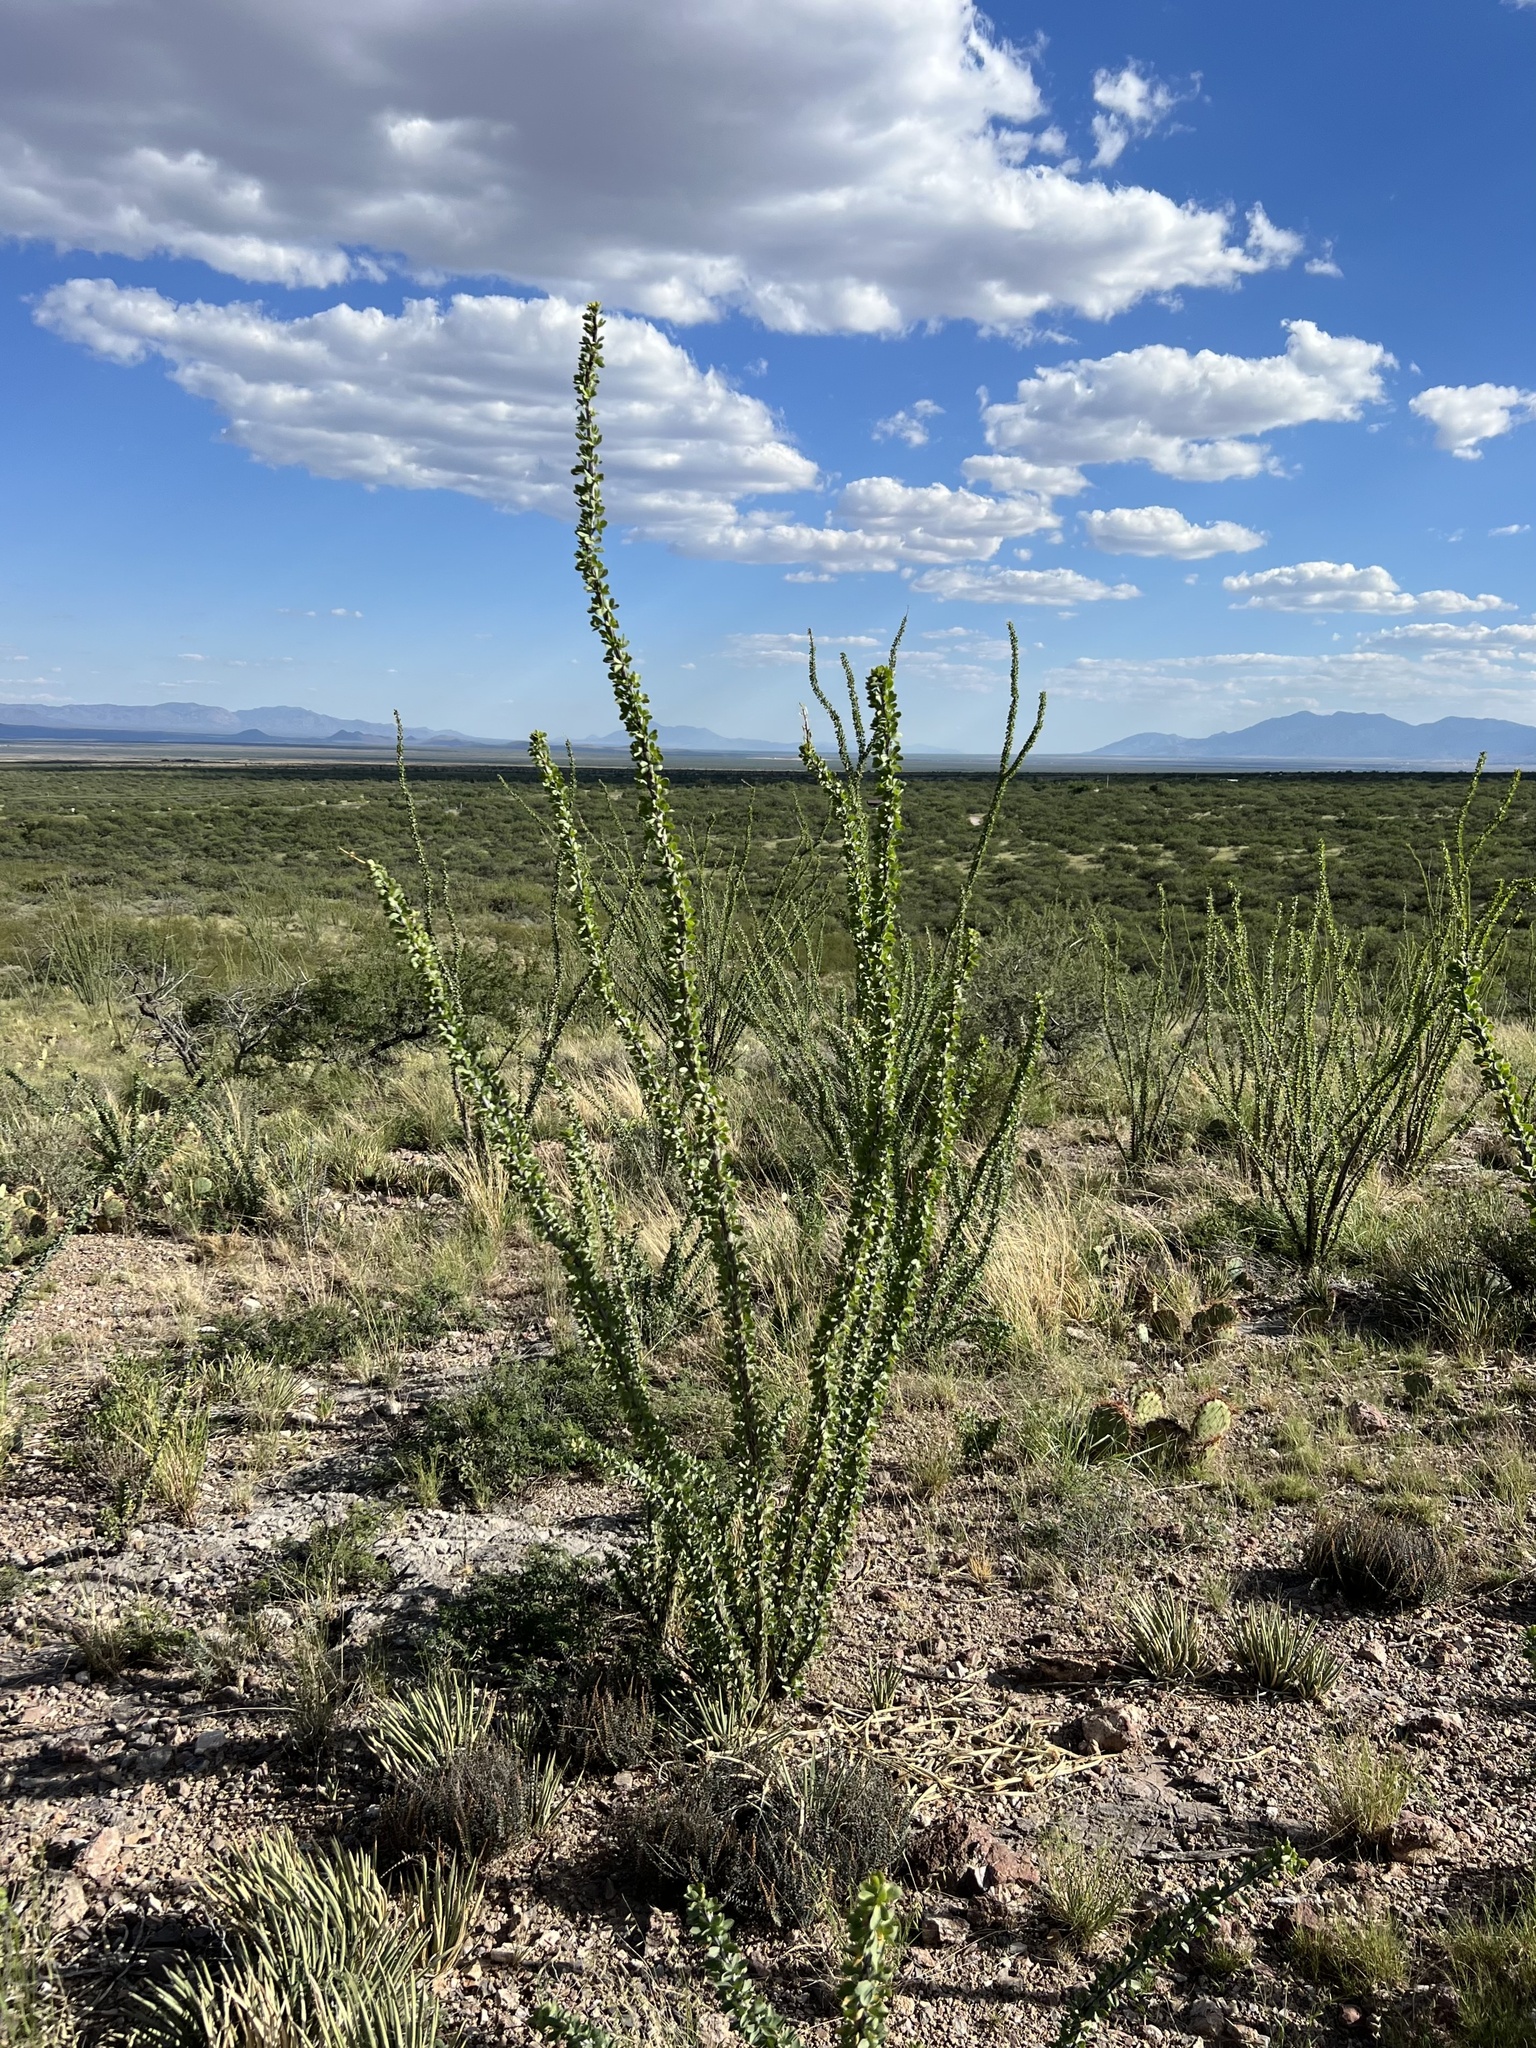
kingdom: Plantae
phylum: Tracheophyta
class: Magnoliopsida
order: Ericales
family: Fouquieriaceae
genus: Fouquieria
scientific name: Fouquieria splendens
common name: Vine-cactus
